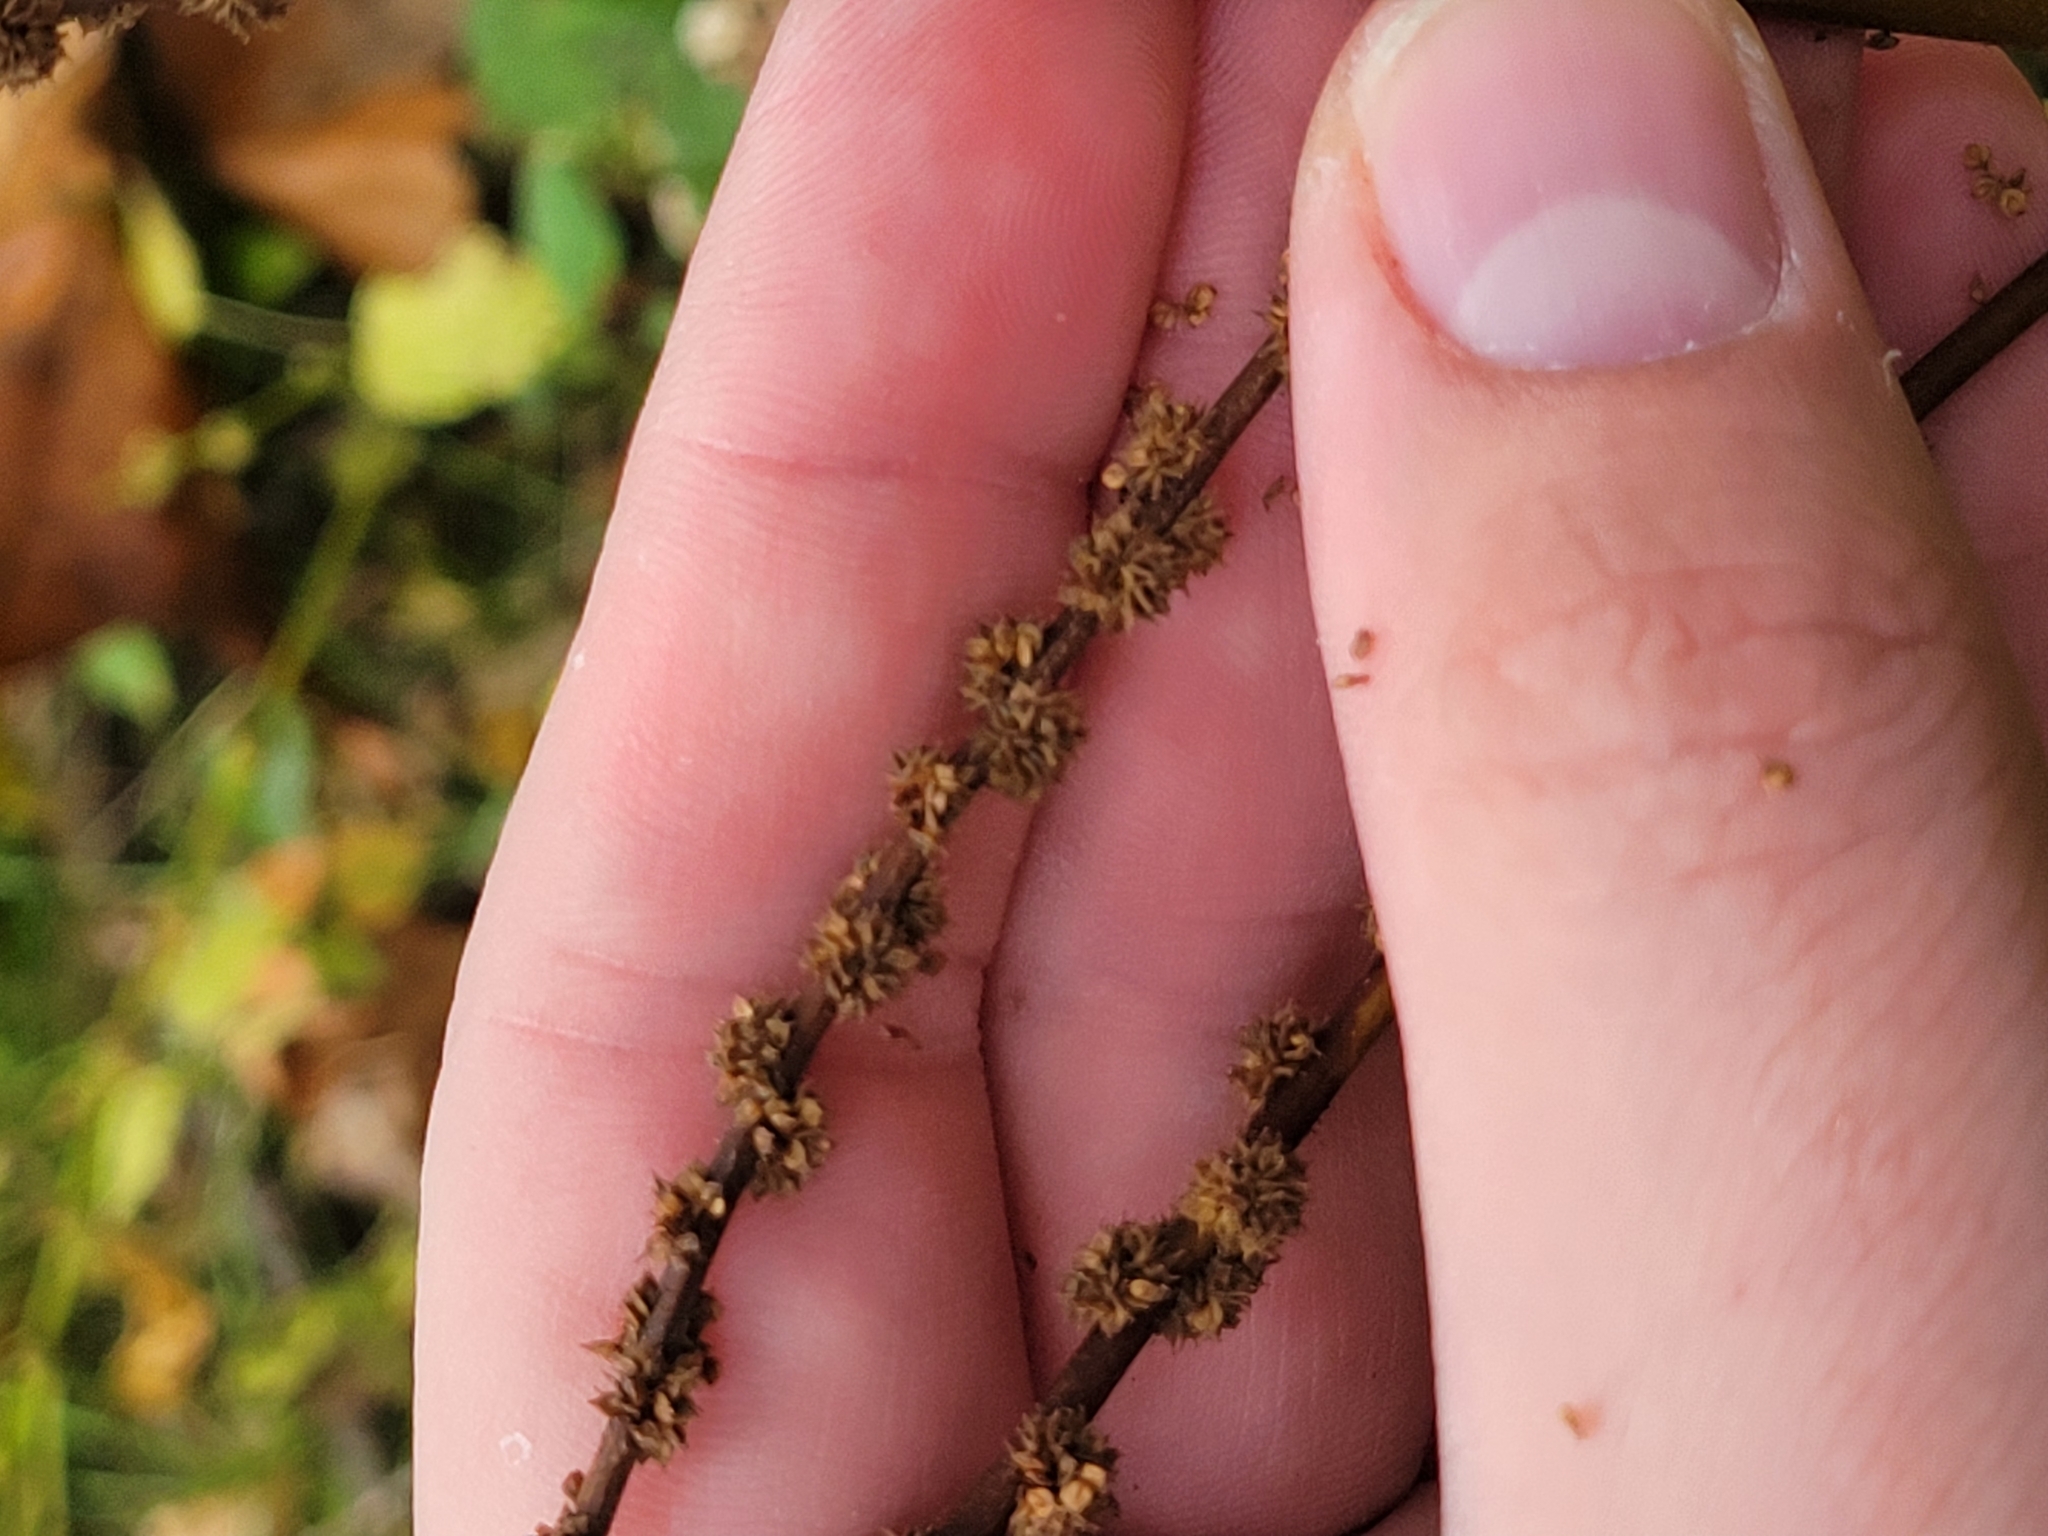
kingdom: Plantae
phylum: Tracheophyta
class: Magnoliopsida
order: Rosales
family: Urticaceae
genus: Boehmeria
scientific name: Boehmeria cylindrica
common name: Bog-hemp
